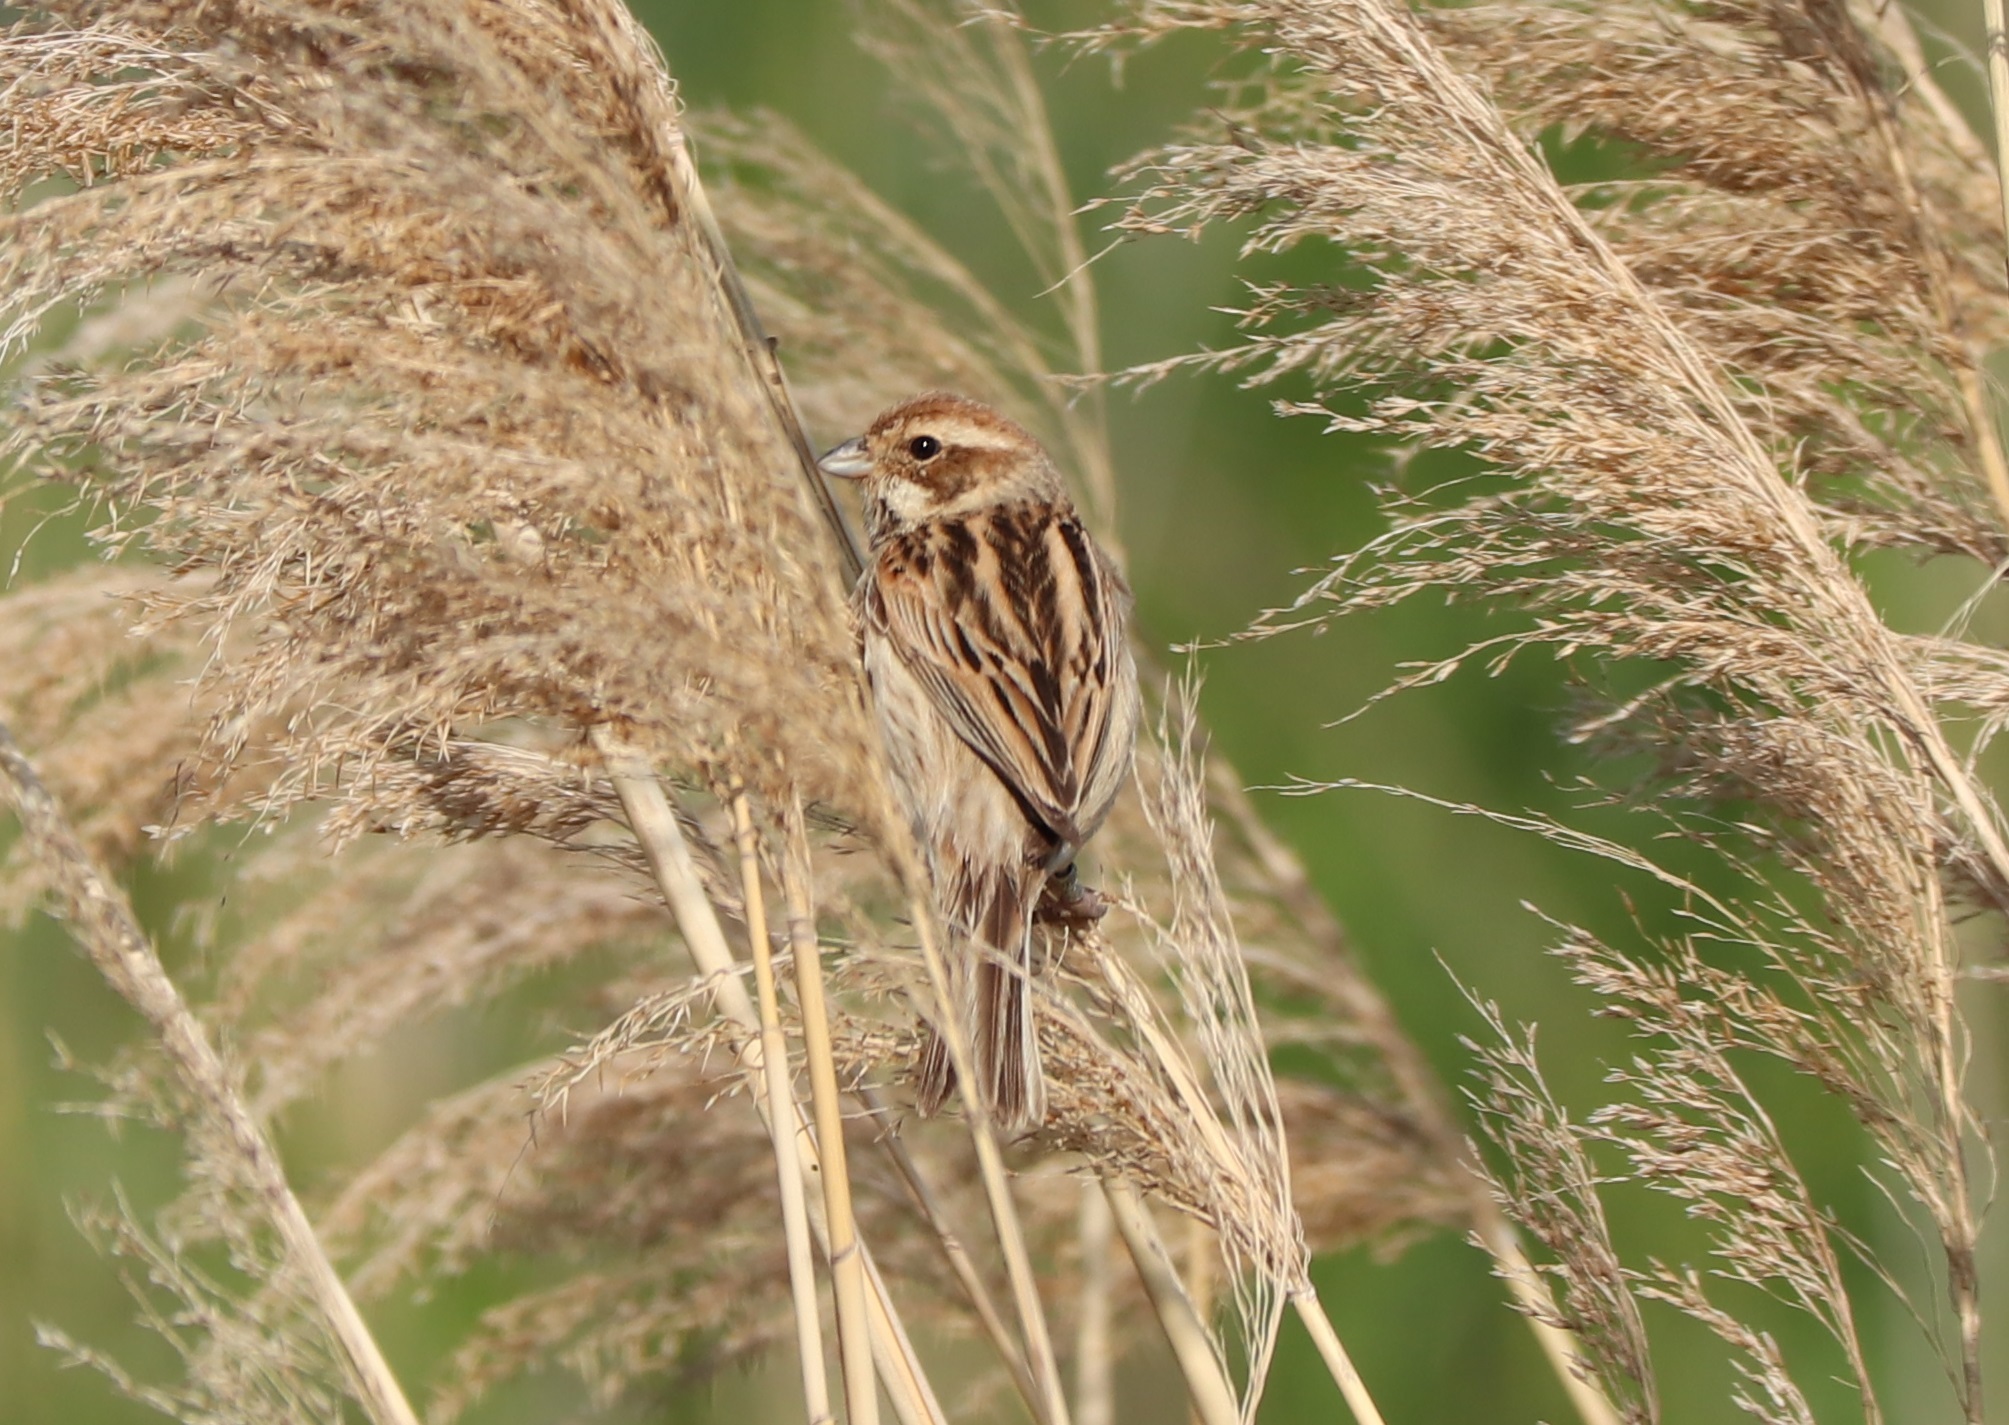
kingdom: Animalia
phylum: Chordata
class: Aves
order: Passeriformes
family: Emberizidae
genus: Emberiza
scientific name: Emberiza schoeniclus
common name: Reed bunting
